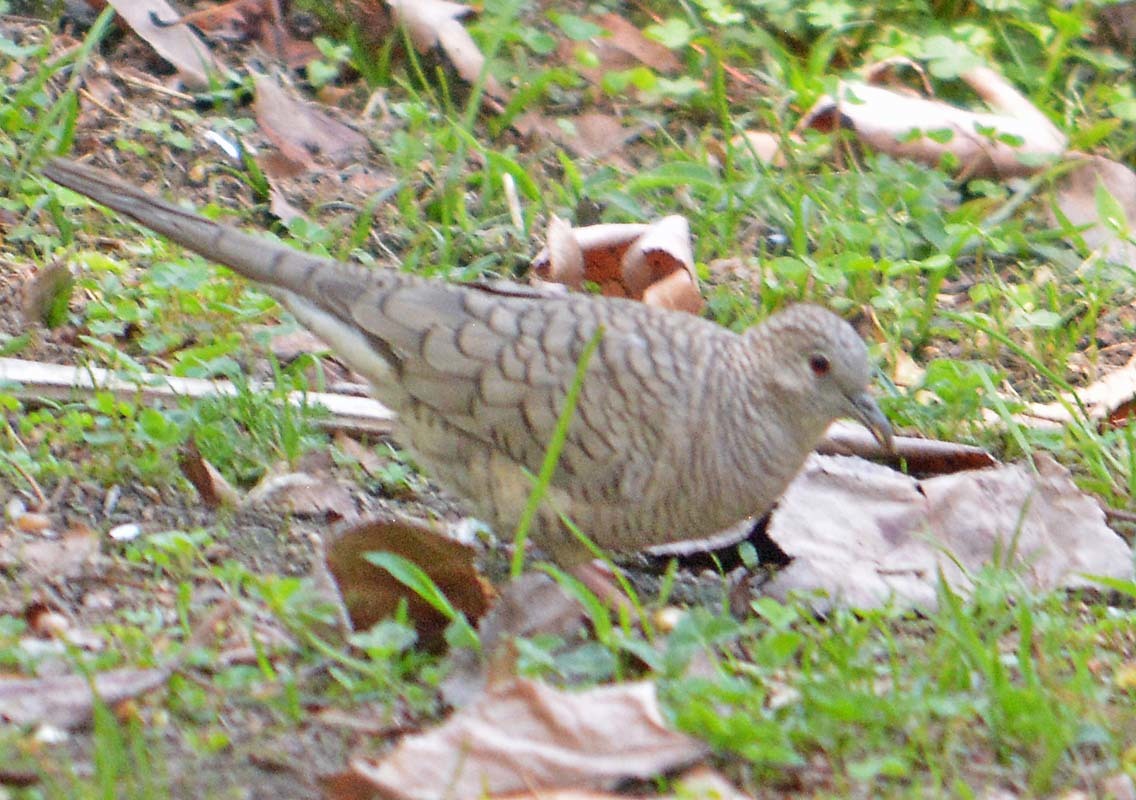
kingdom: Animalia
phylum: Chordata
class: Aves
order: Columbiformes
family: Columbidae
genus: Columbina
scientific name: Columbina inca
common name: Inca dove
